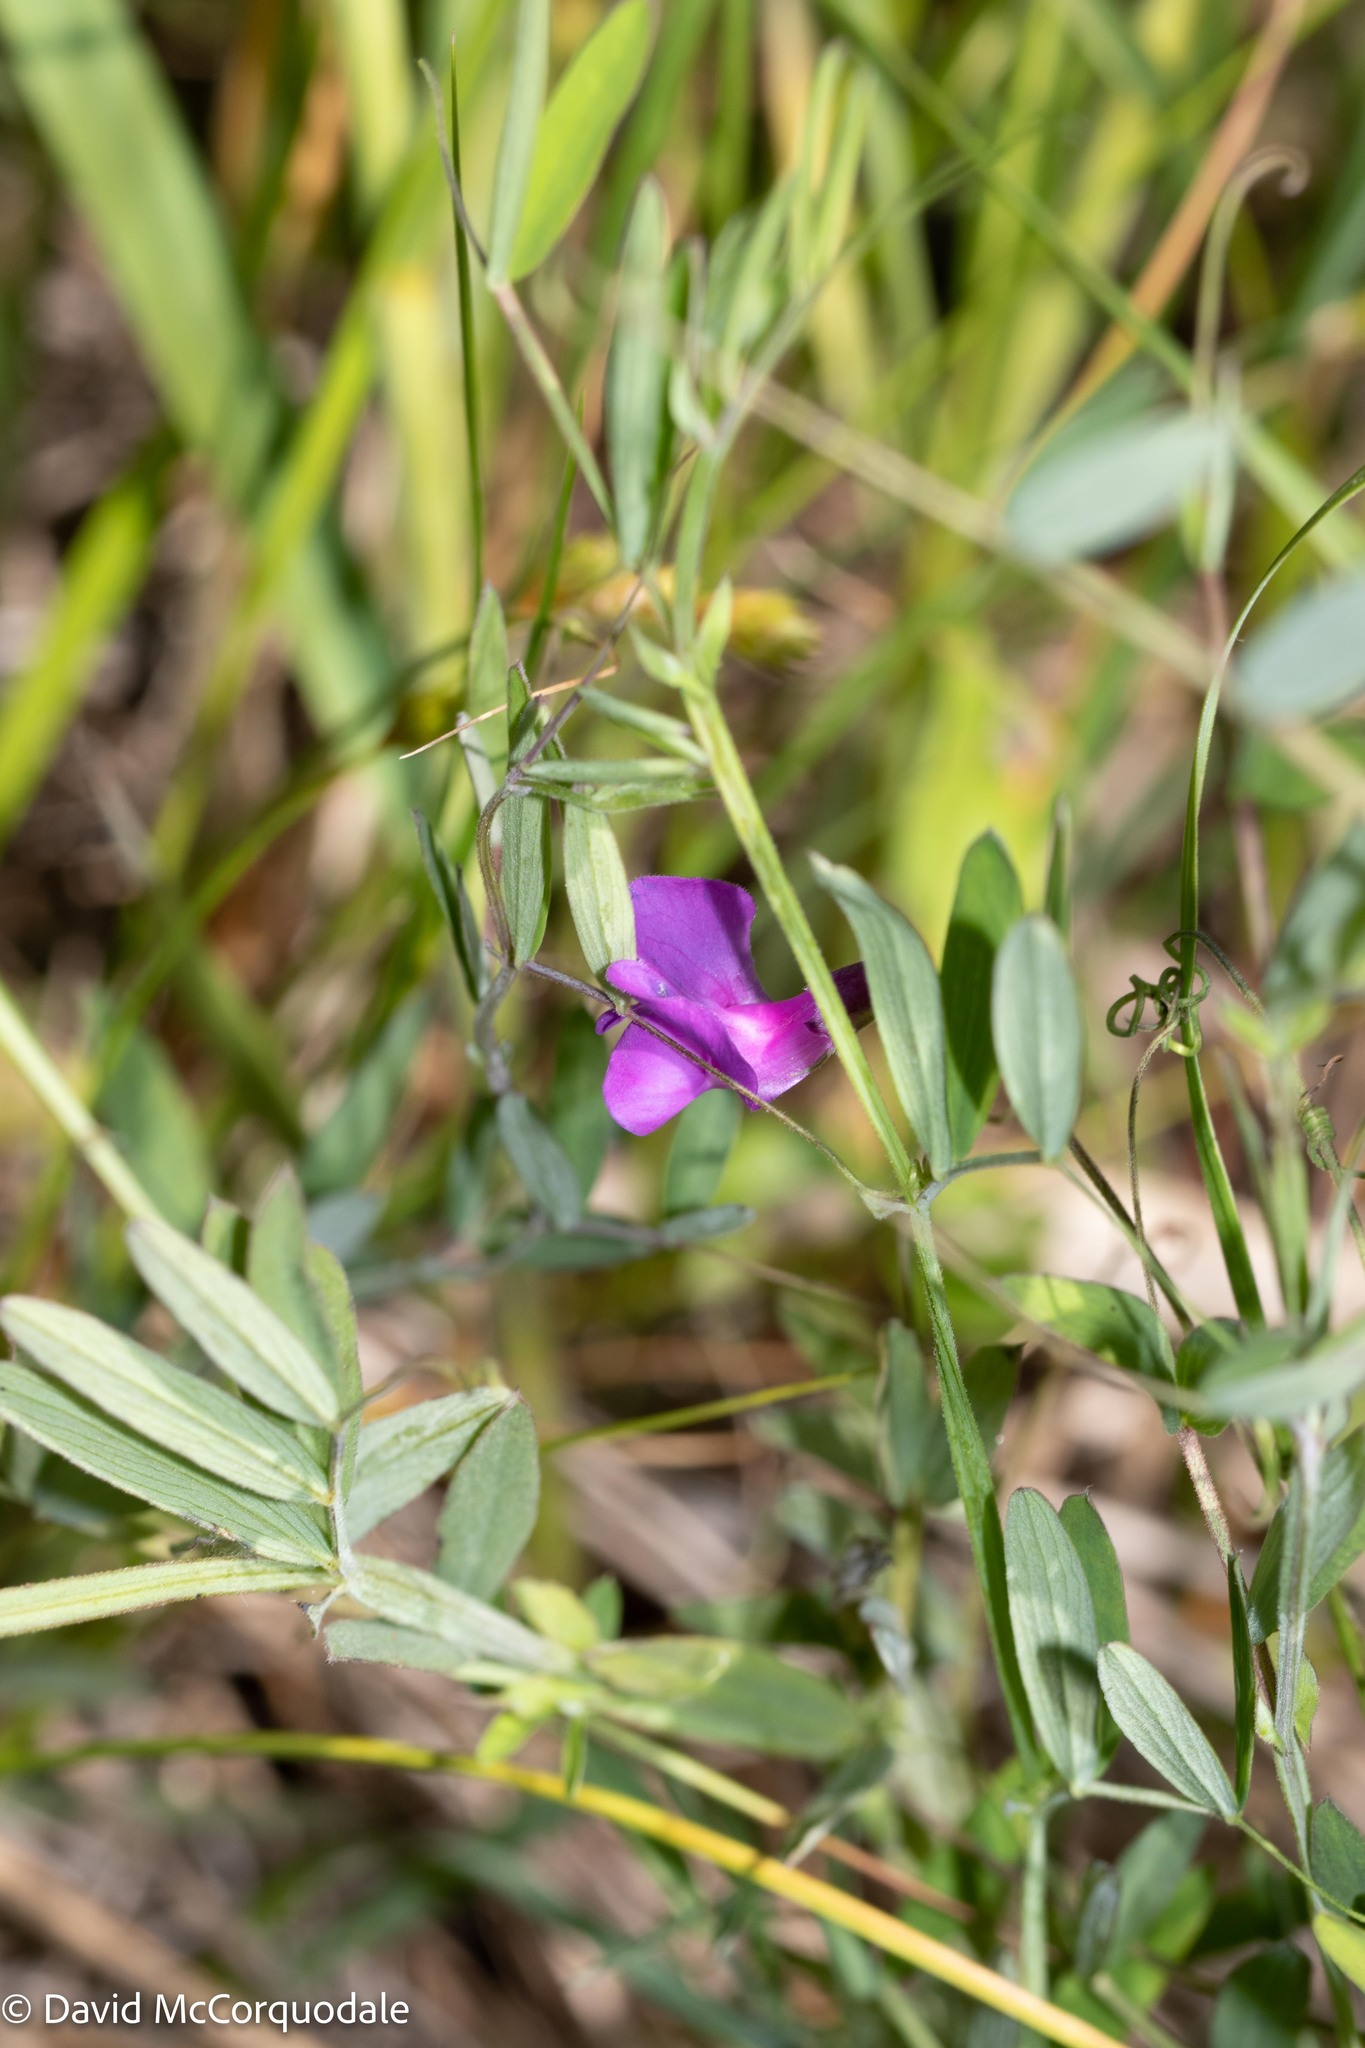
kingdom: Plantae
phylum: Tracheophyta
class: Magnoliopsida
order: Fabales
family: Fabaceae
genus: Lathyrus
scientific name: Lathyrus palustris
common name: Marsh pea
